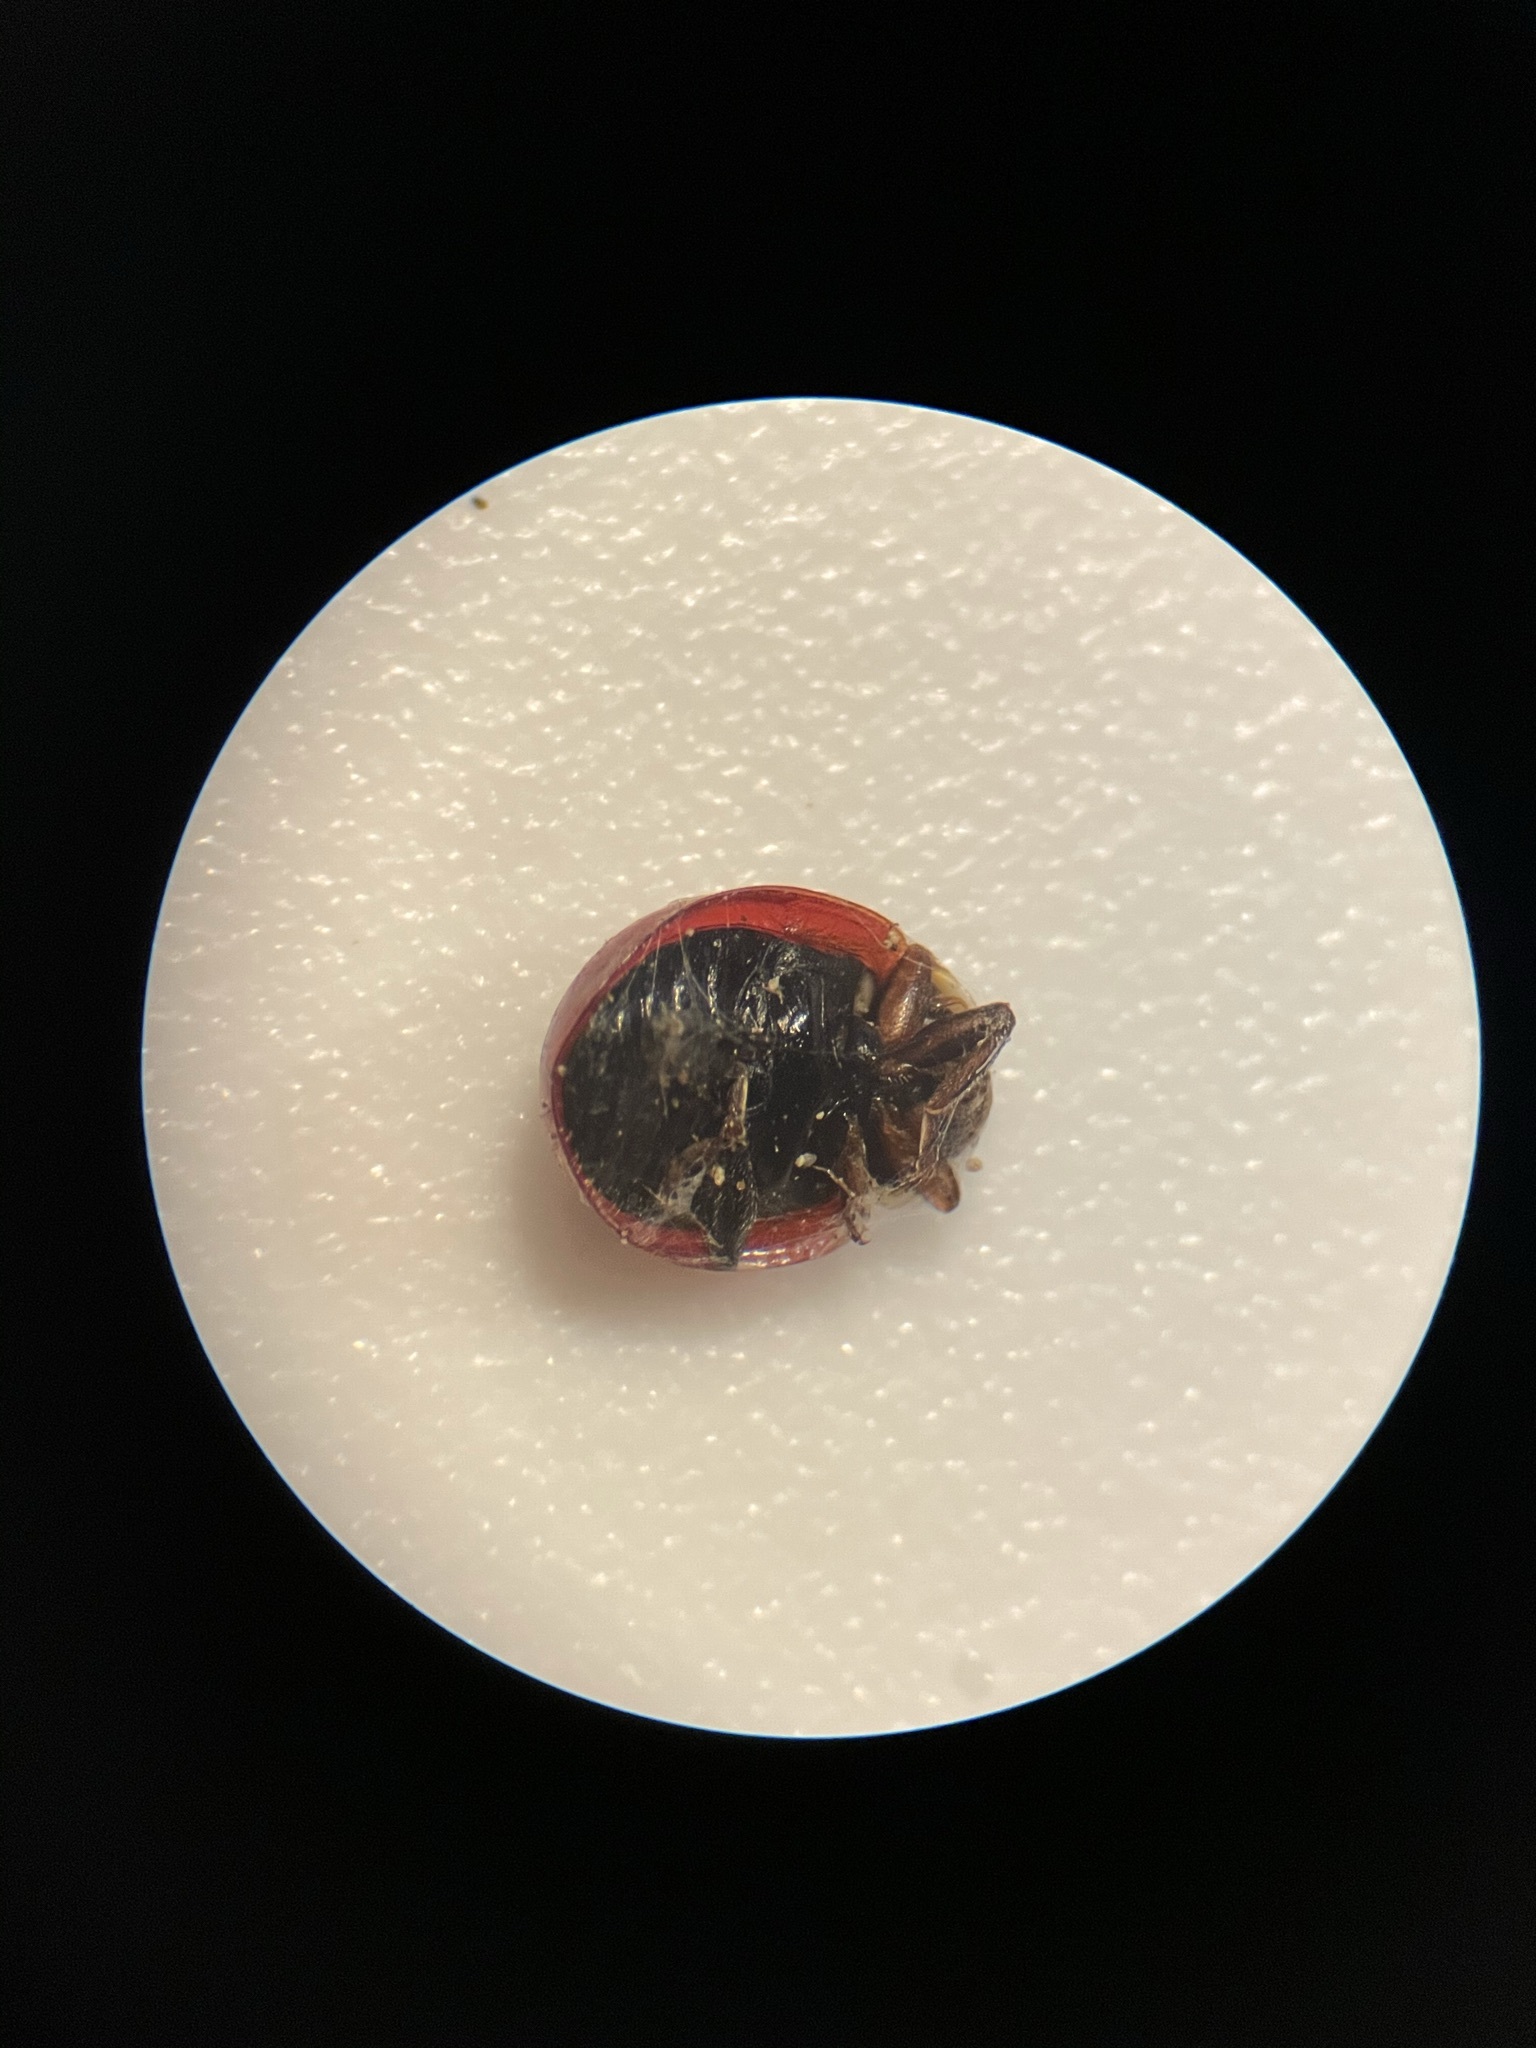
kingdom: Animalia
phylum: Arthropoda
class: Insecta
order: Coleoptera
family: Coccinellidae
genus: Cycloneda
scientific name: Cycloneda polita
